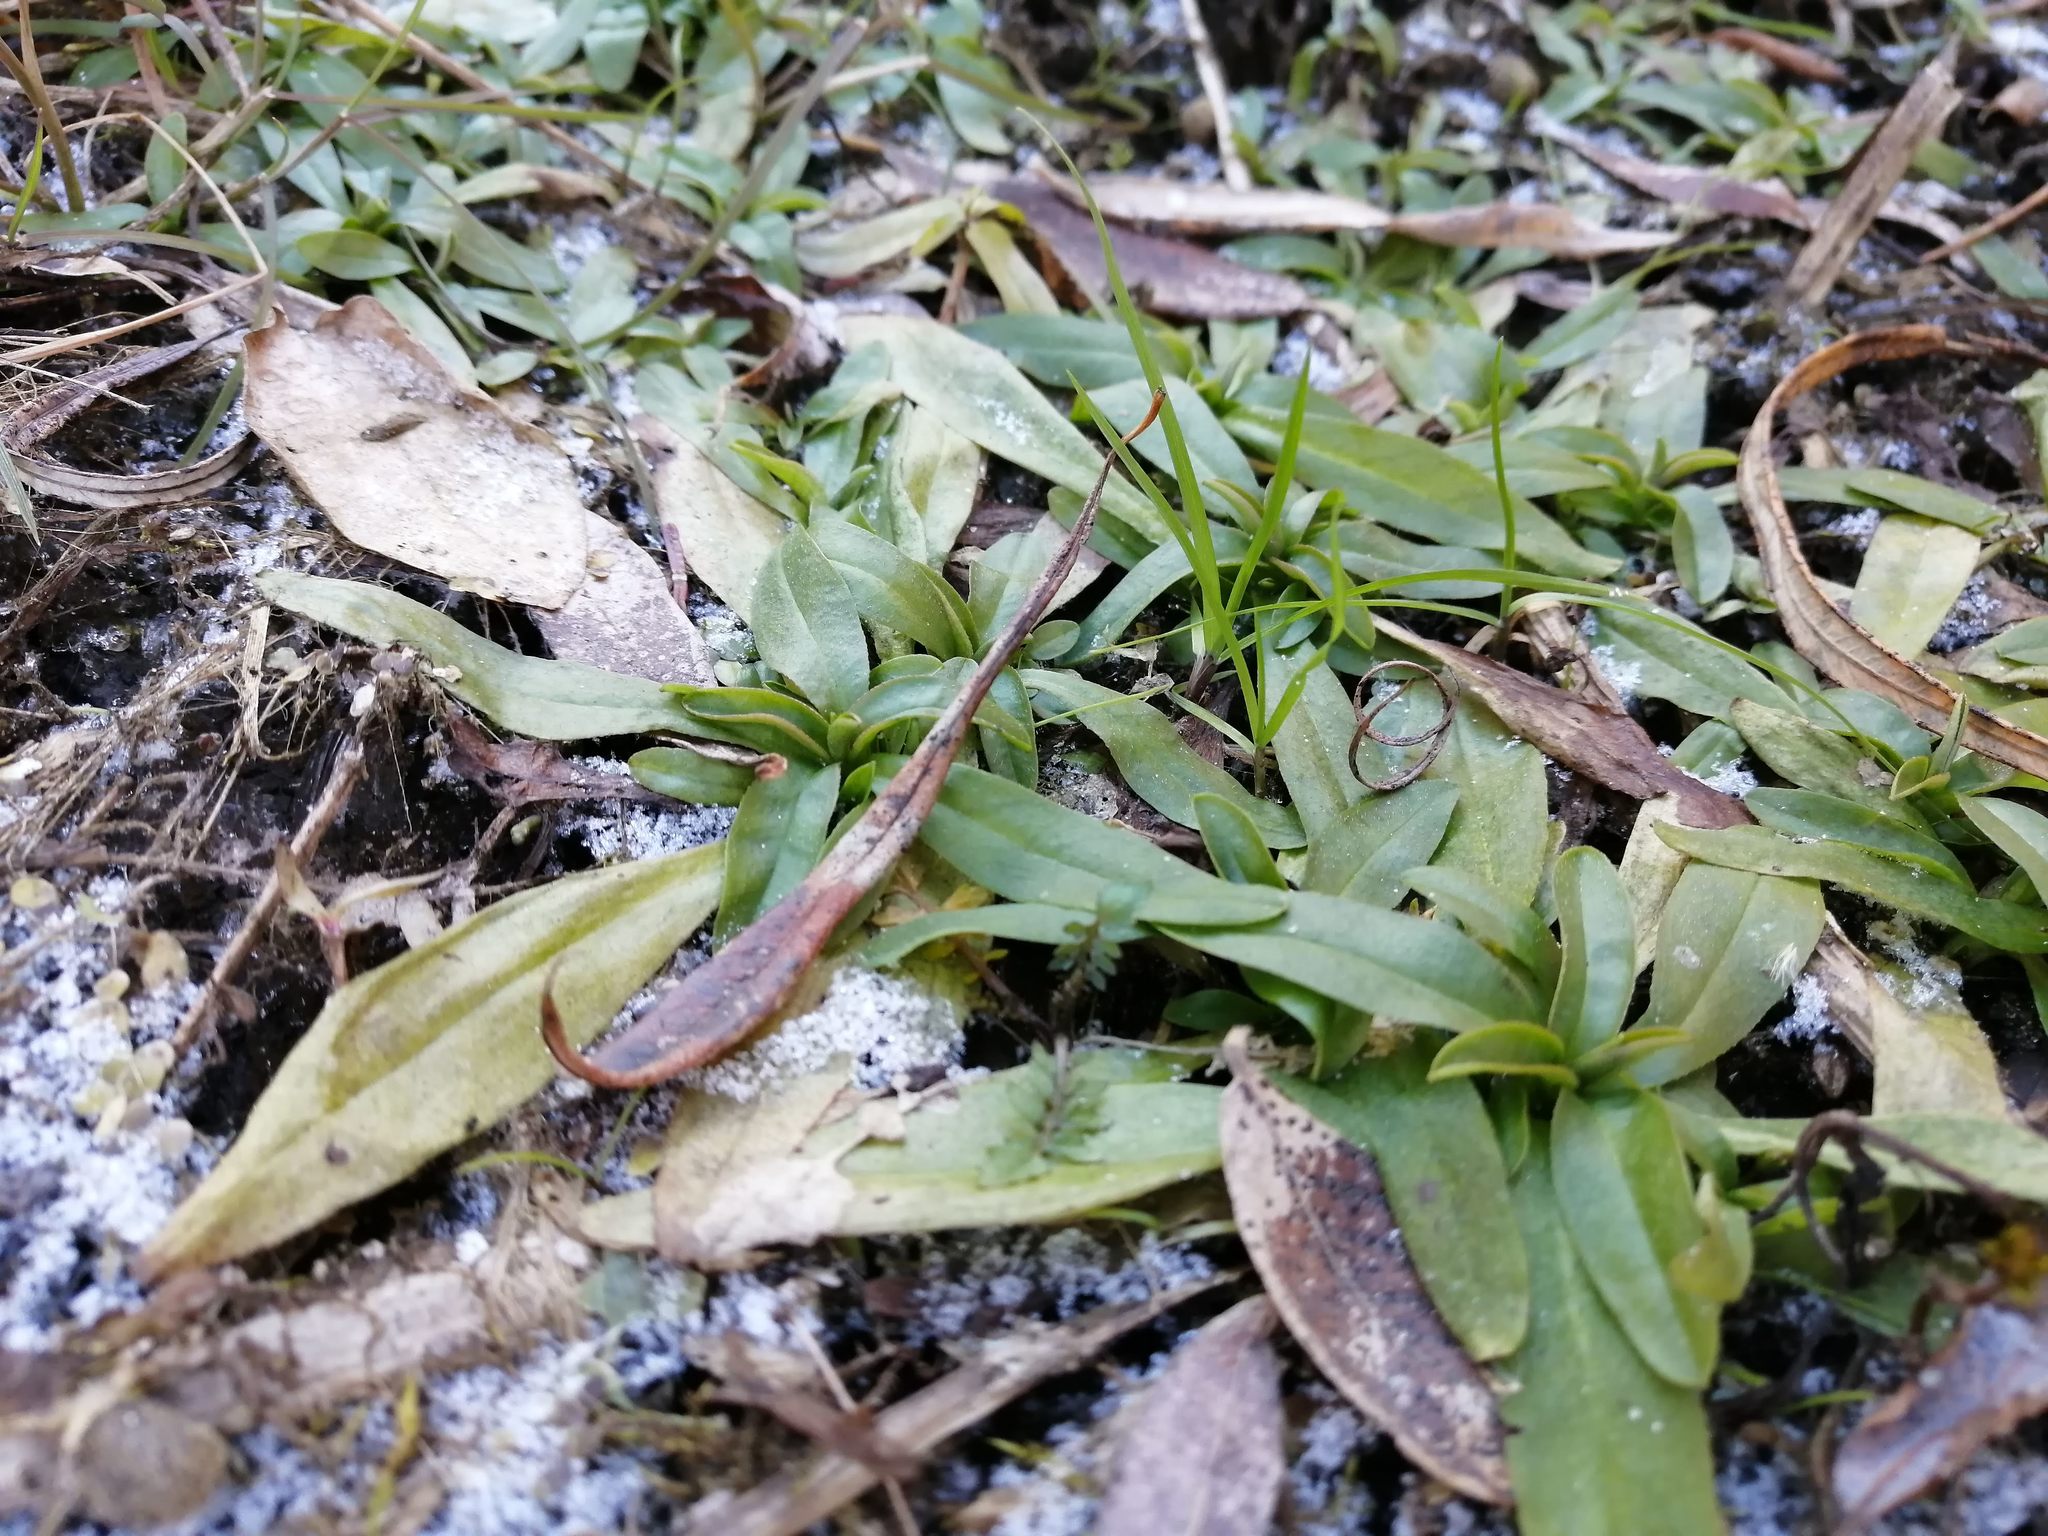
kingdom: Plantae
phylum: Tracheophyta
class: Magnoliopsida
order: Boraginales
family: Boraginaceae
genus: Myosotis
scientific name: Myosotis scorpioides
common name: Water forget-me-not
